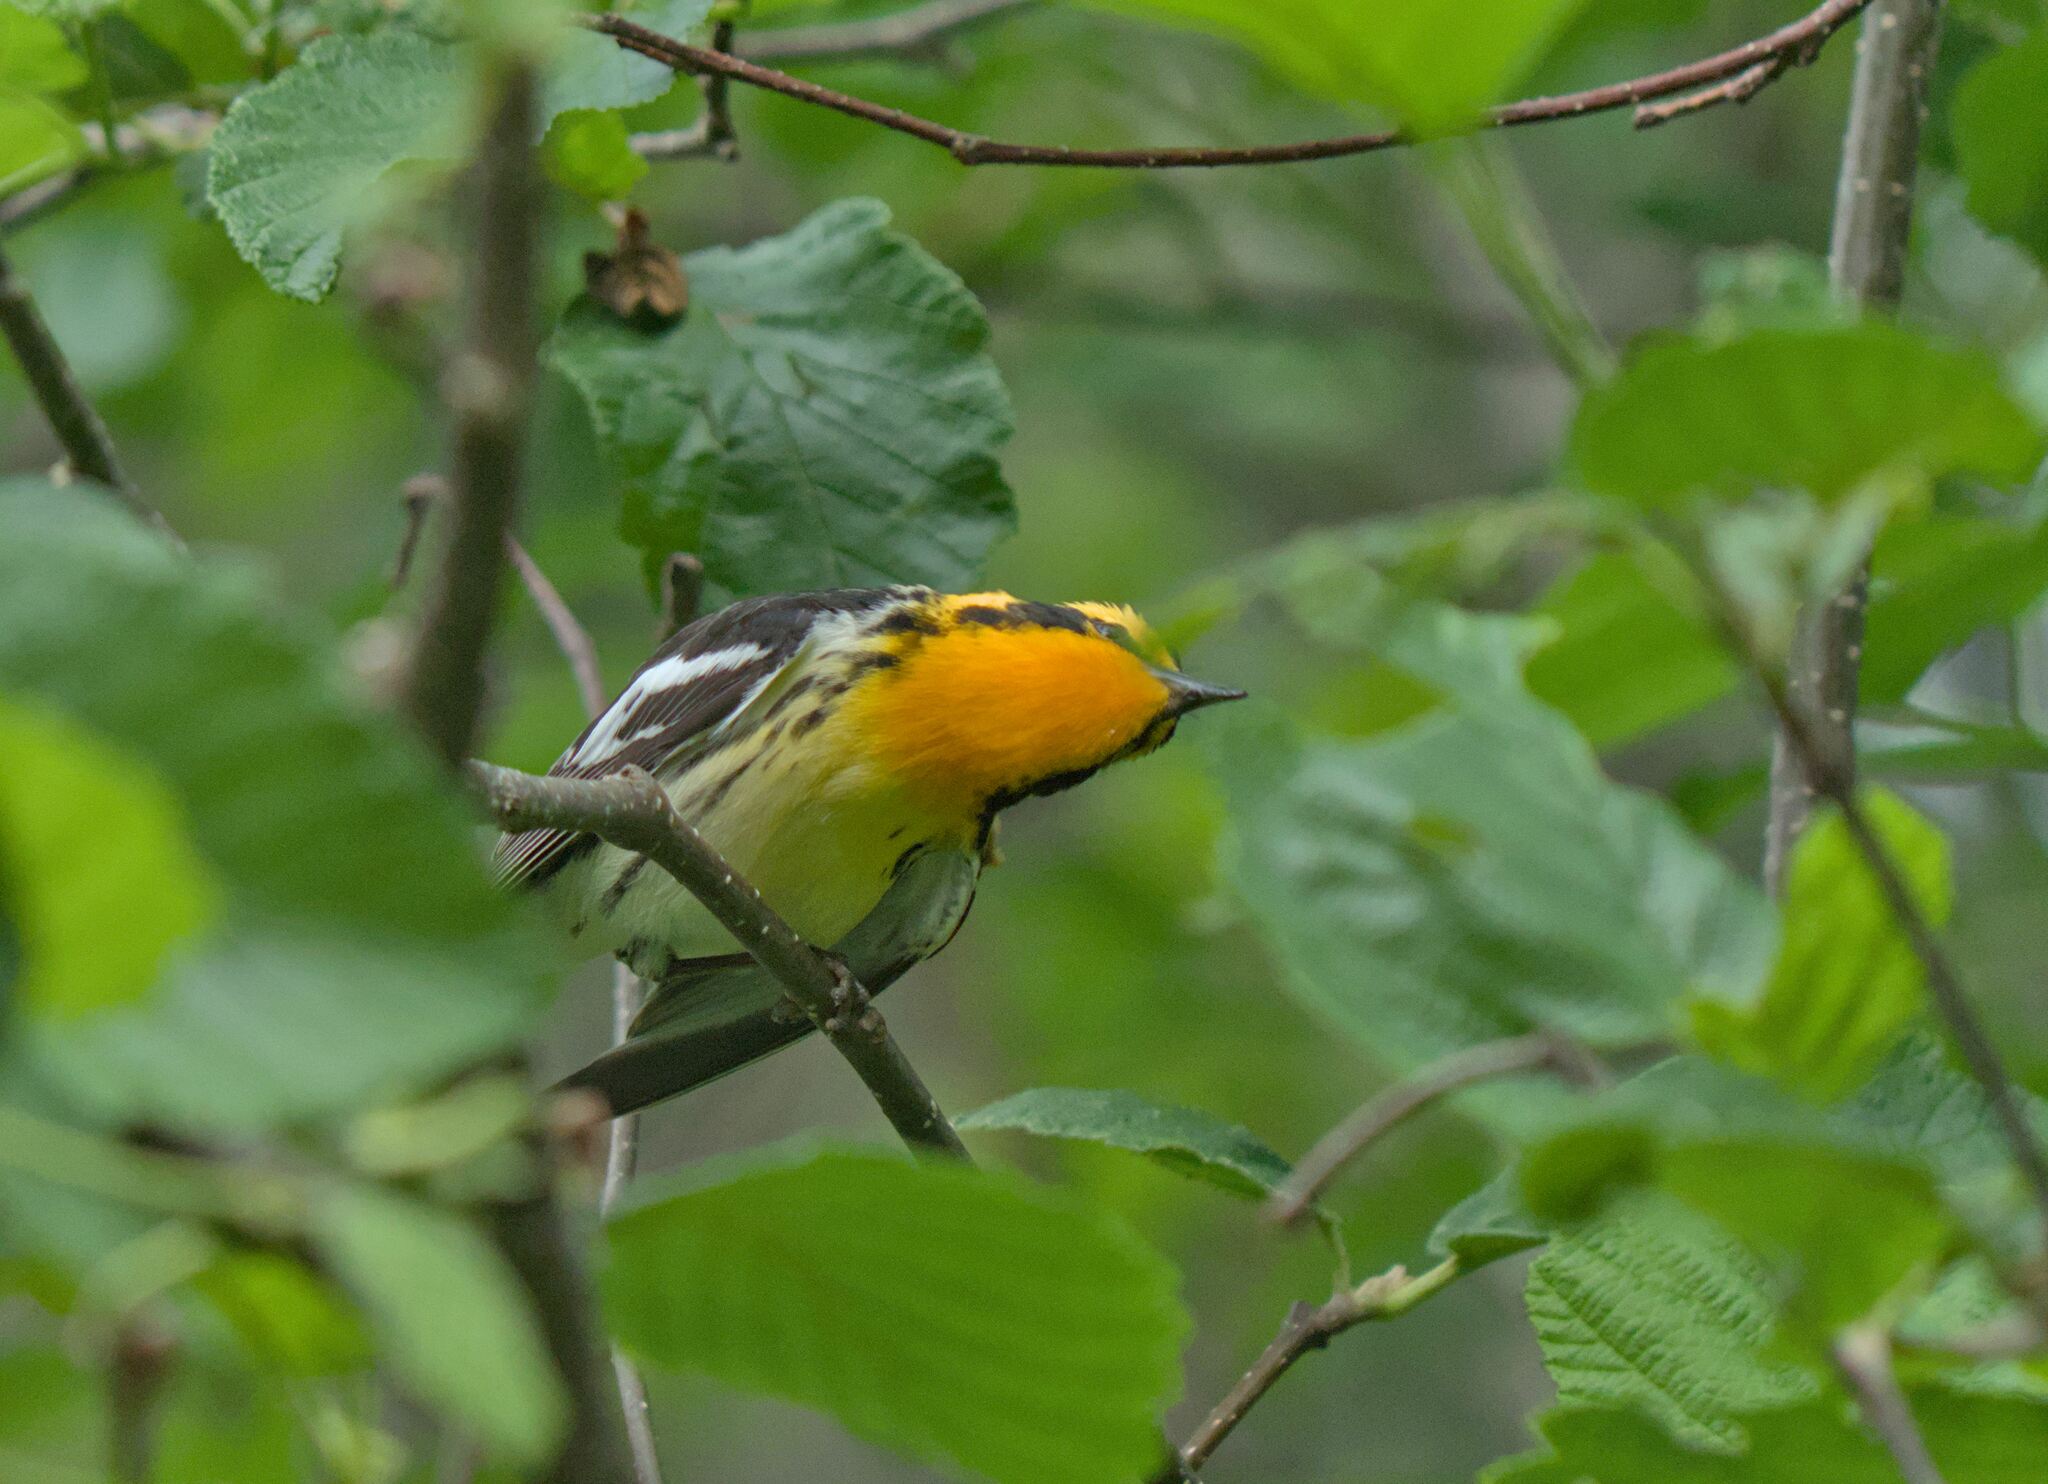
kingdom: Animalia
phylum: Chordata
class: Aves
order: Passeriformes
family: Parulidae
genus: Setophaga
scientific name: Setophaga fusca
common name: Blackburnian warbler
